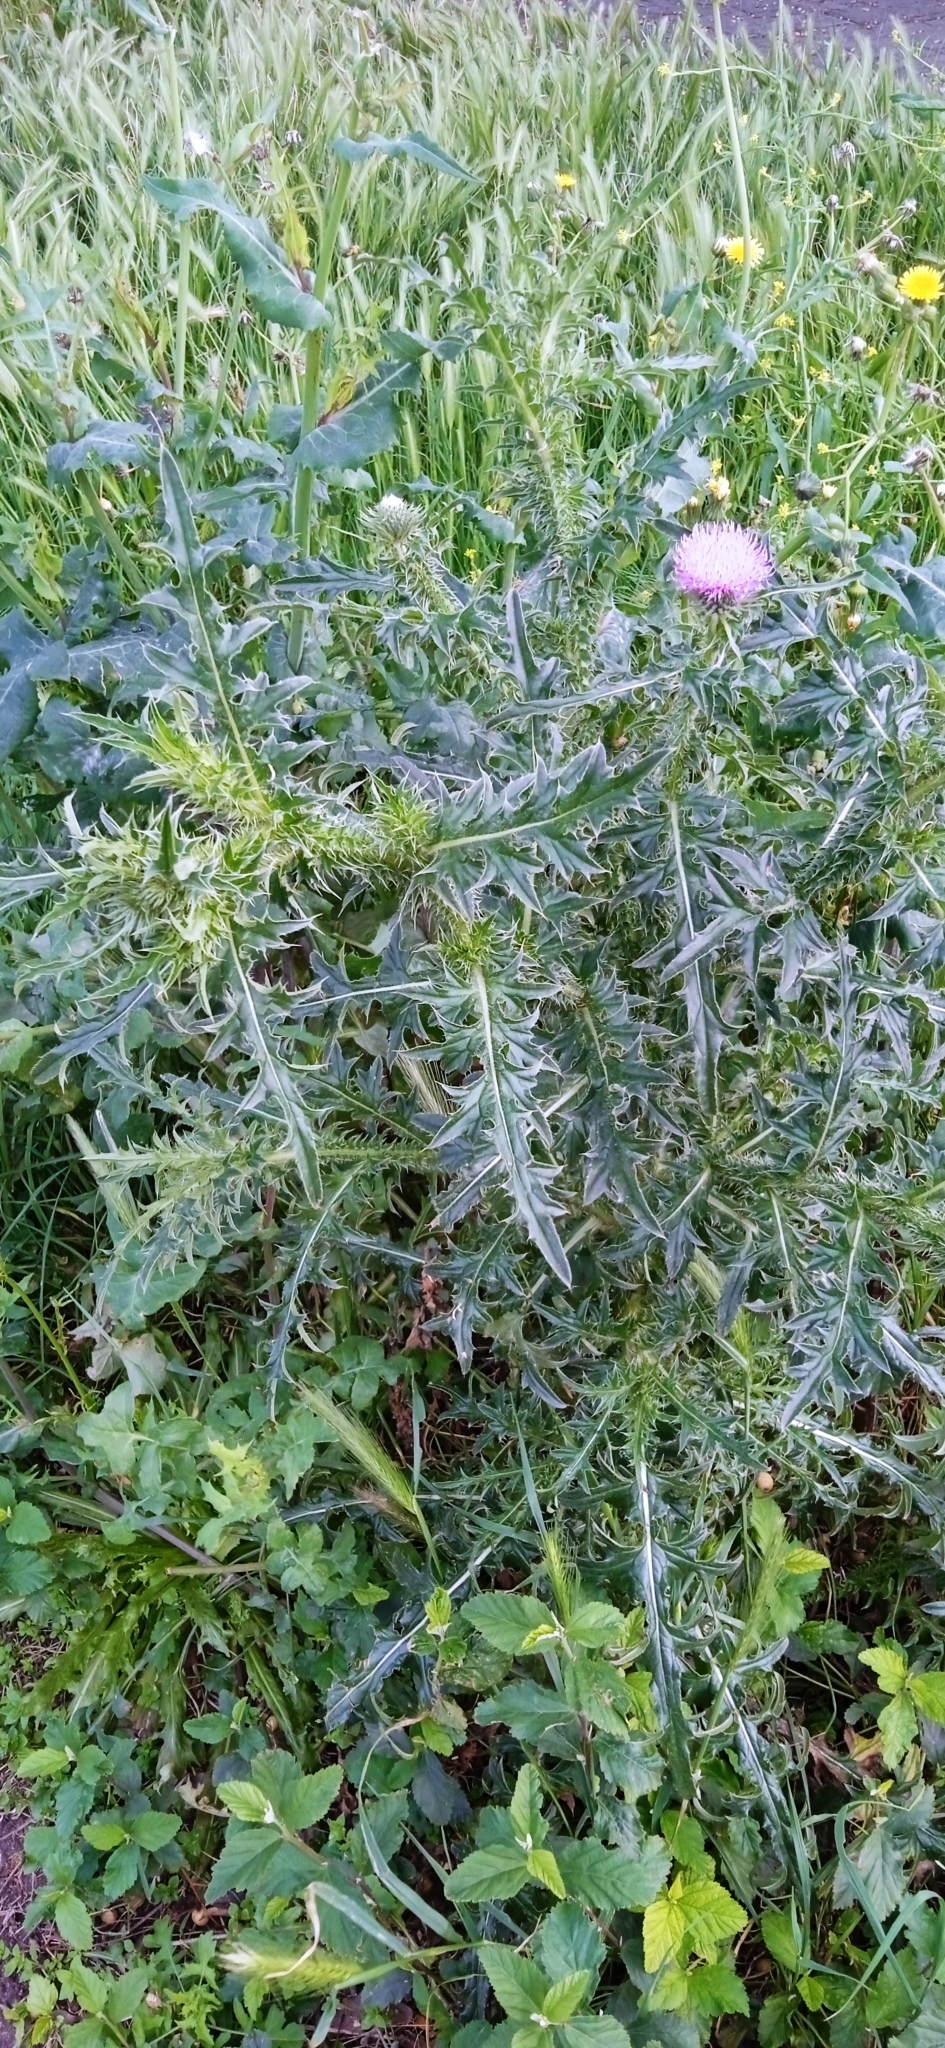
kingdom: Plantae
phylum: Tracheophyta
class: Magnoliopsida
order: Asterales
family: Asteraceae
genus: Carduus
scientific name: Carduus acanthoides
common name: Plumeless thistle
